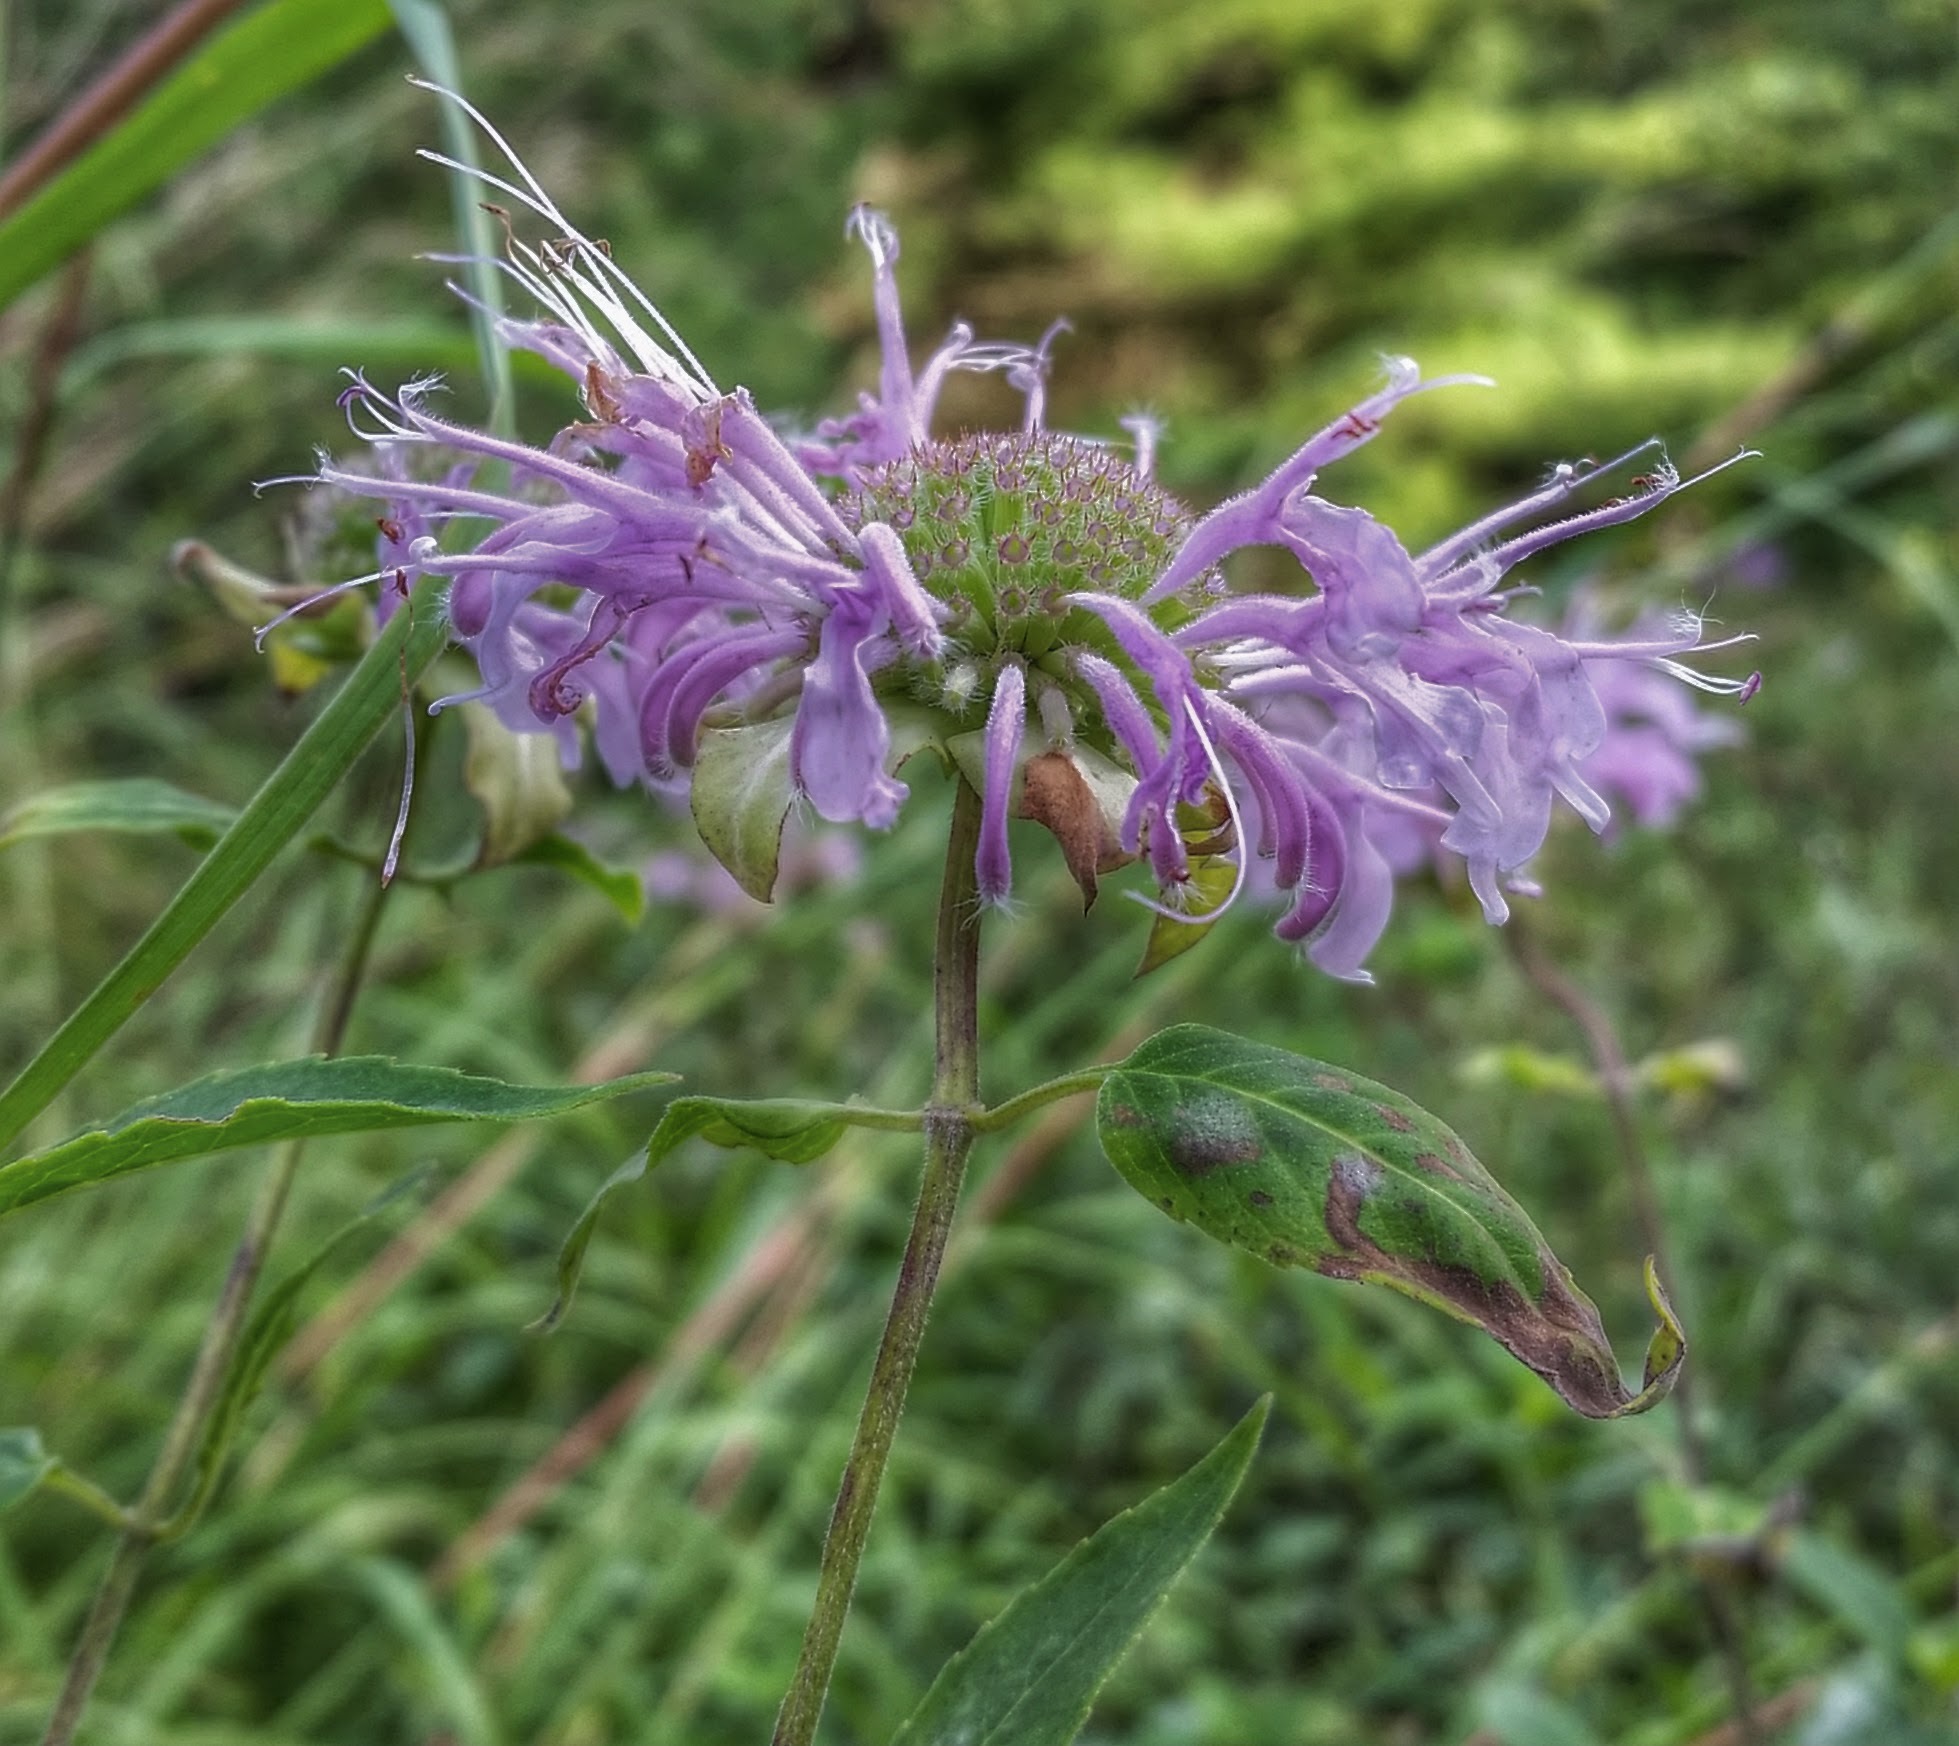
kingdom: Plantae
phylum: Tracheophyta
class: Magnoliopsida
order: Lamiales
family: Lamiaceae
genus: Monarda
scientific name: Monarda fistulosa
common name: Purple beebalm
